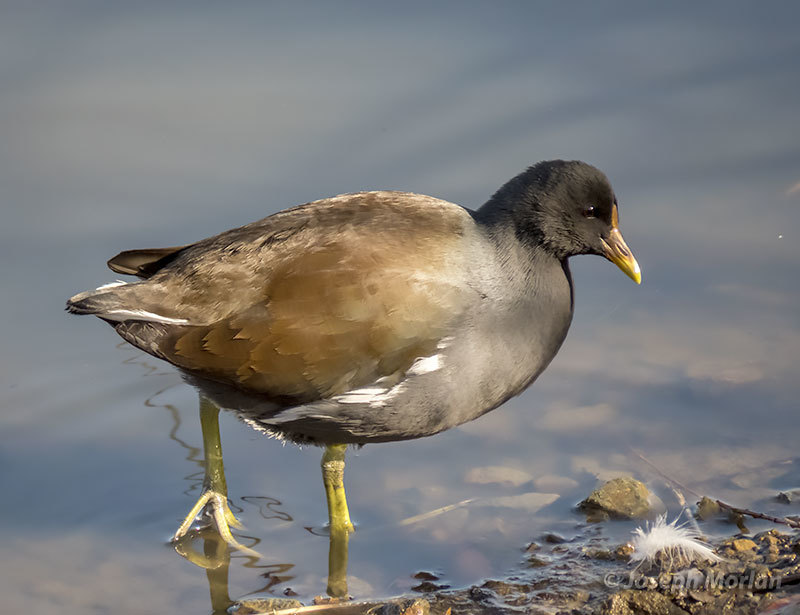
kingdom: Animalia
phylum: Chordata
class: Aves
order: Gruiformes
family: Rallidae
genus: Gallinula
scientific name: Gallinula chloropus
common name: Common moorhen
